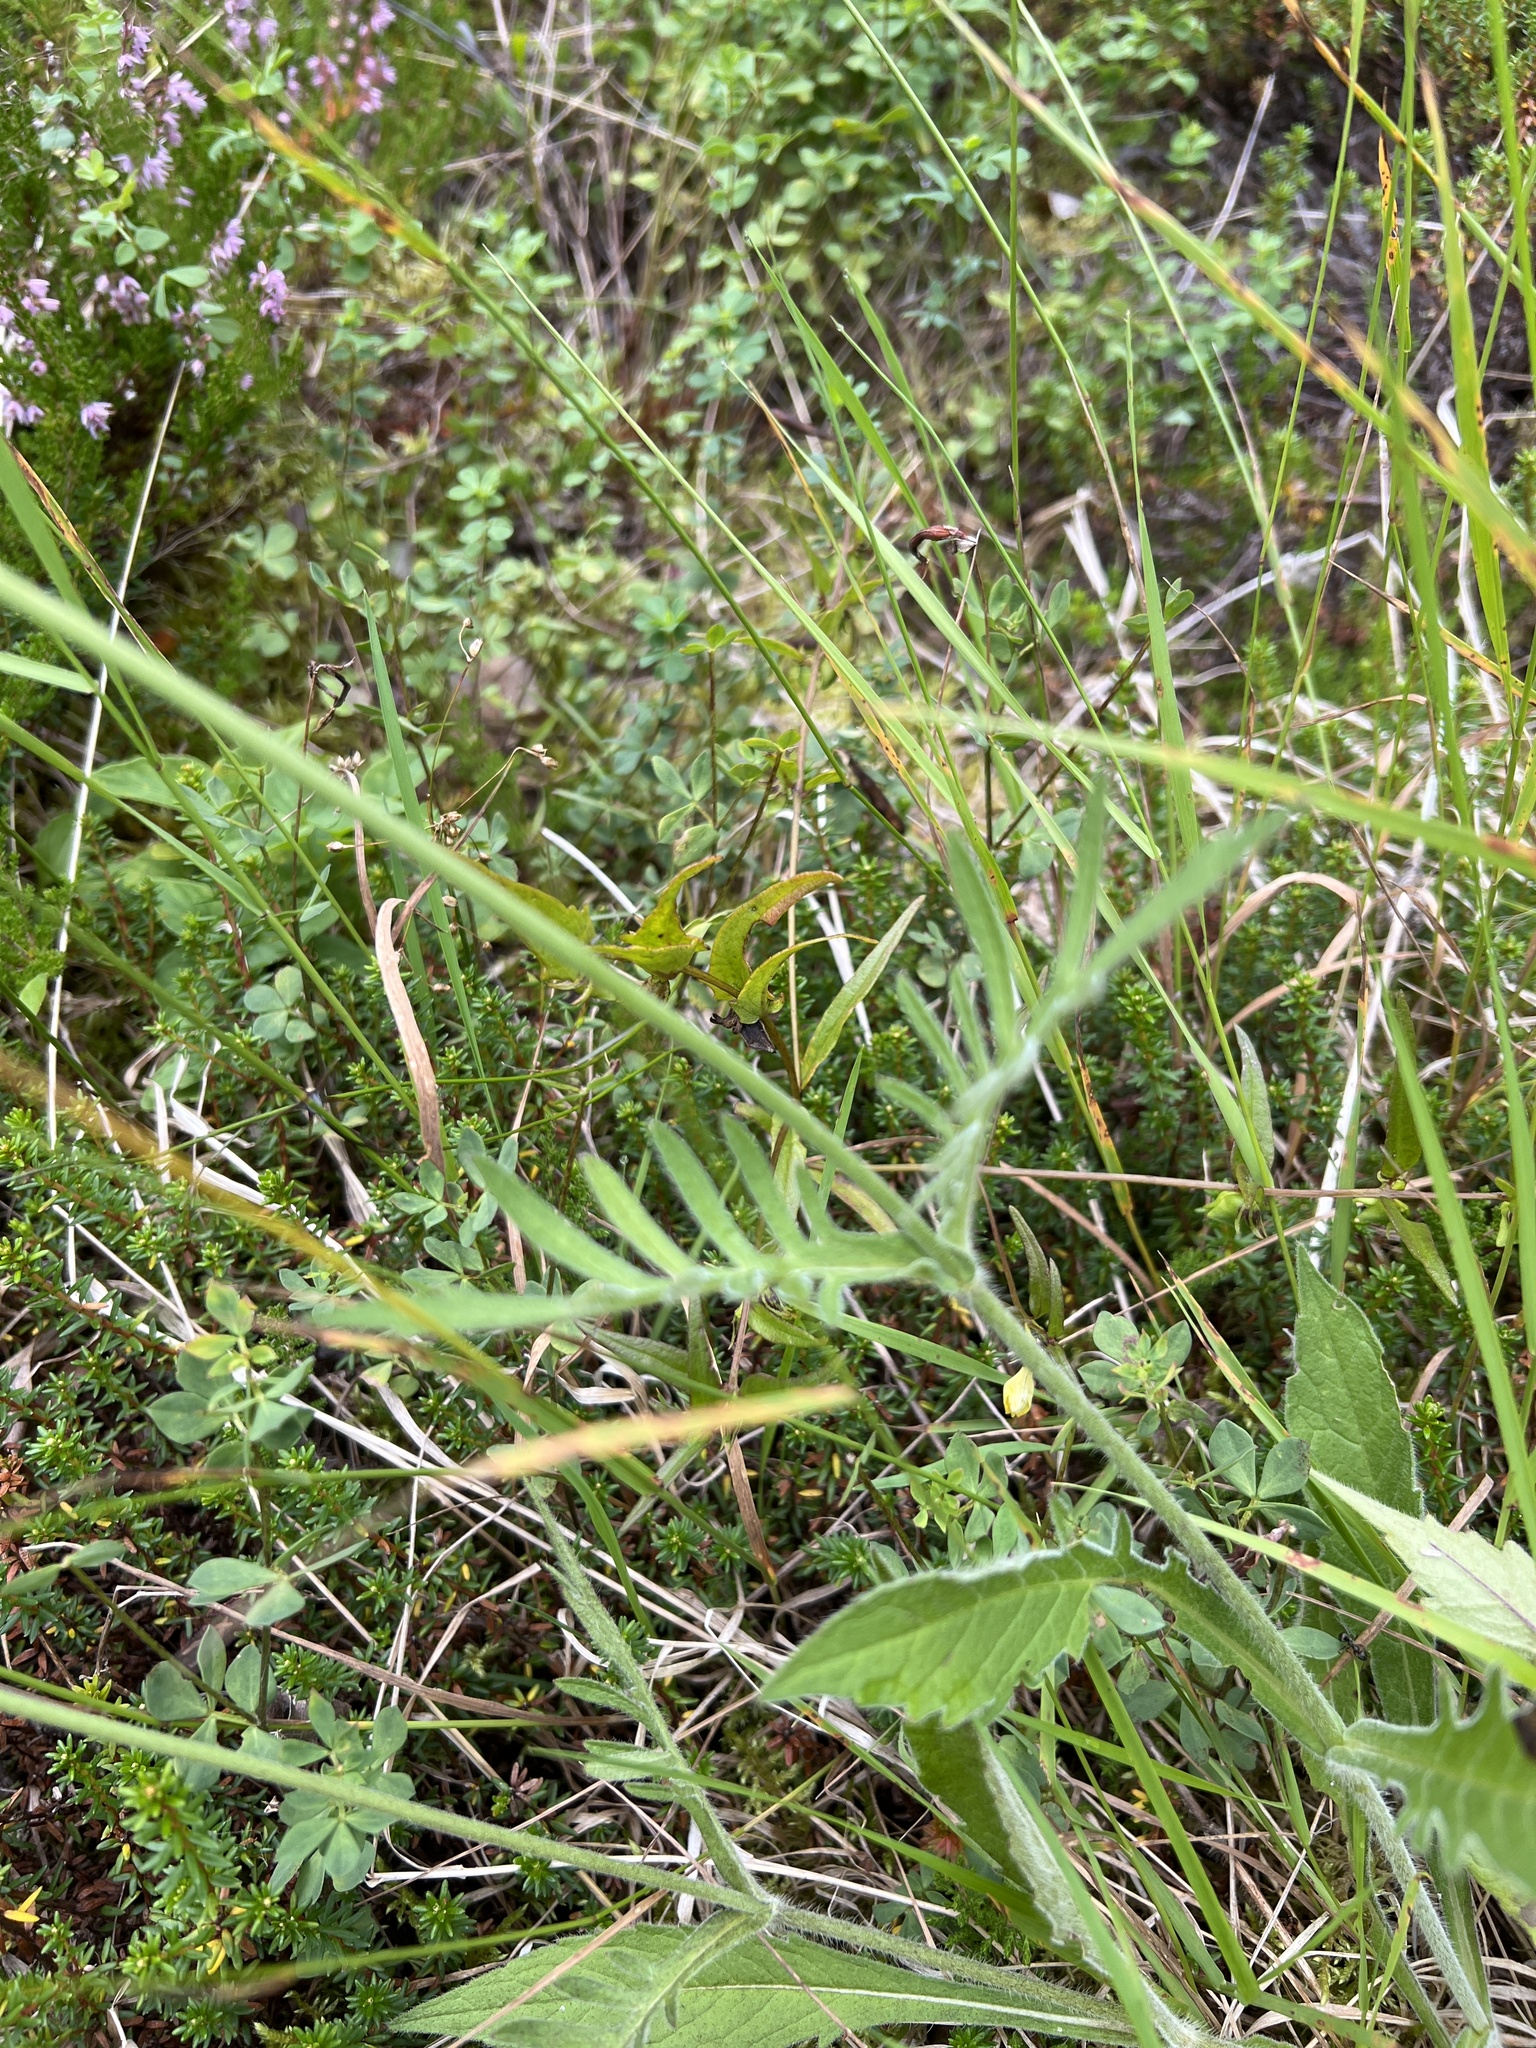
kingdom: Plantae
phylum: Tracheophyta
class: Magnoliopsida
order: Dipsacales
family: Caprifoliaceae
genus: Knautia
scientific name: Knautia arvensis
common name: Field scabiosa
